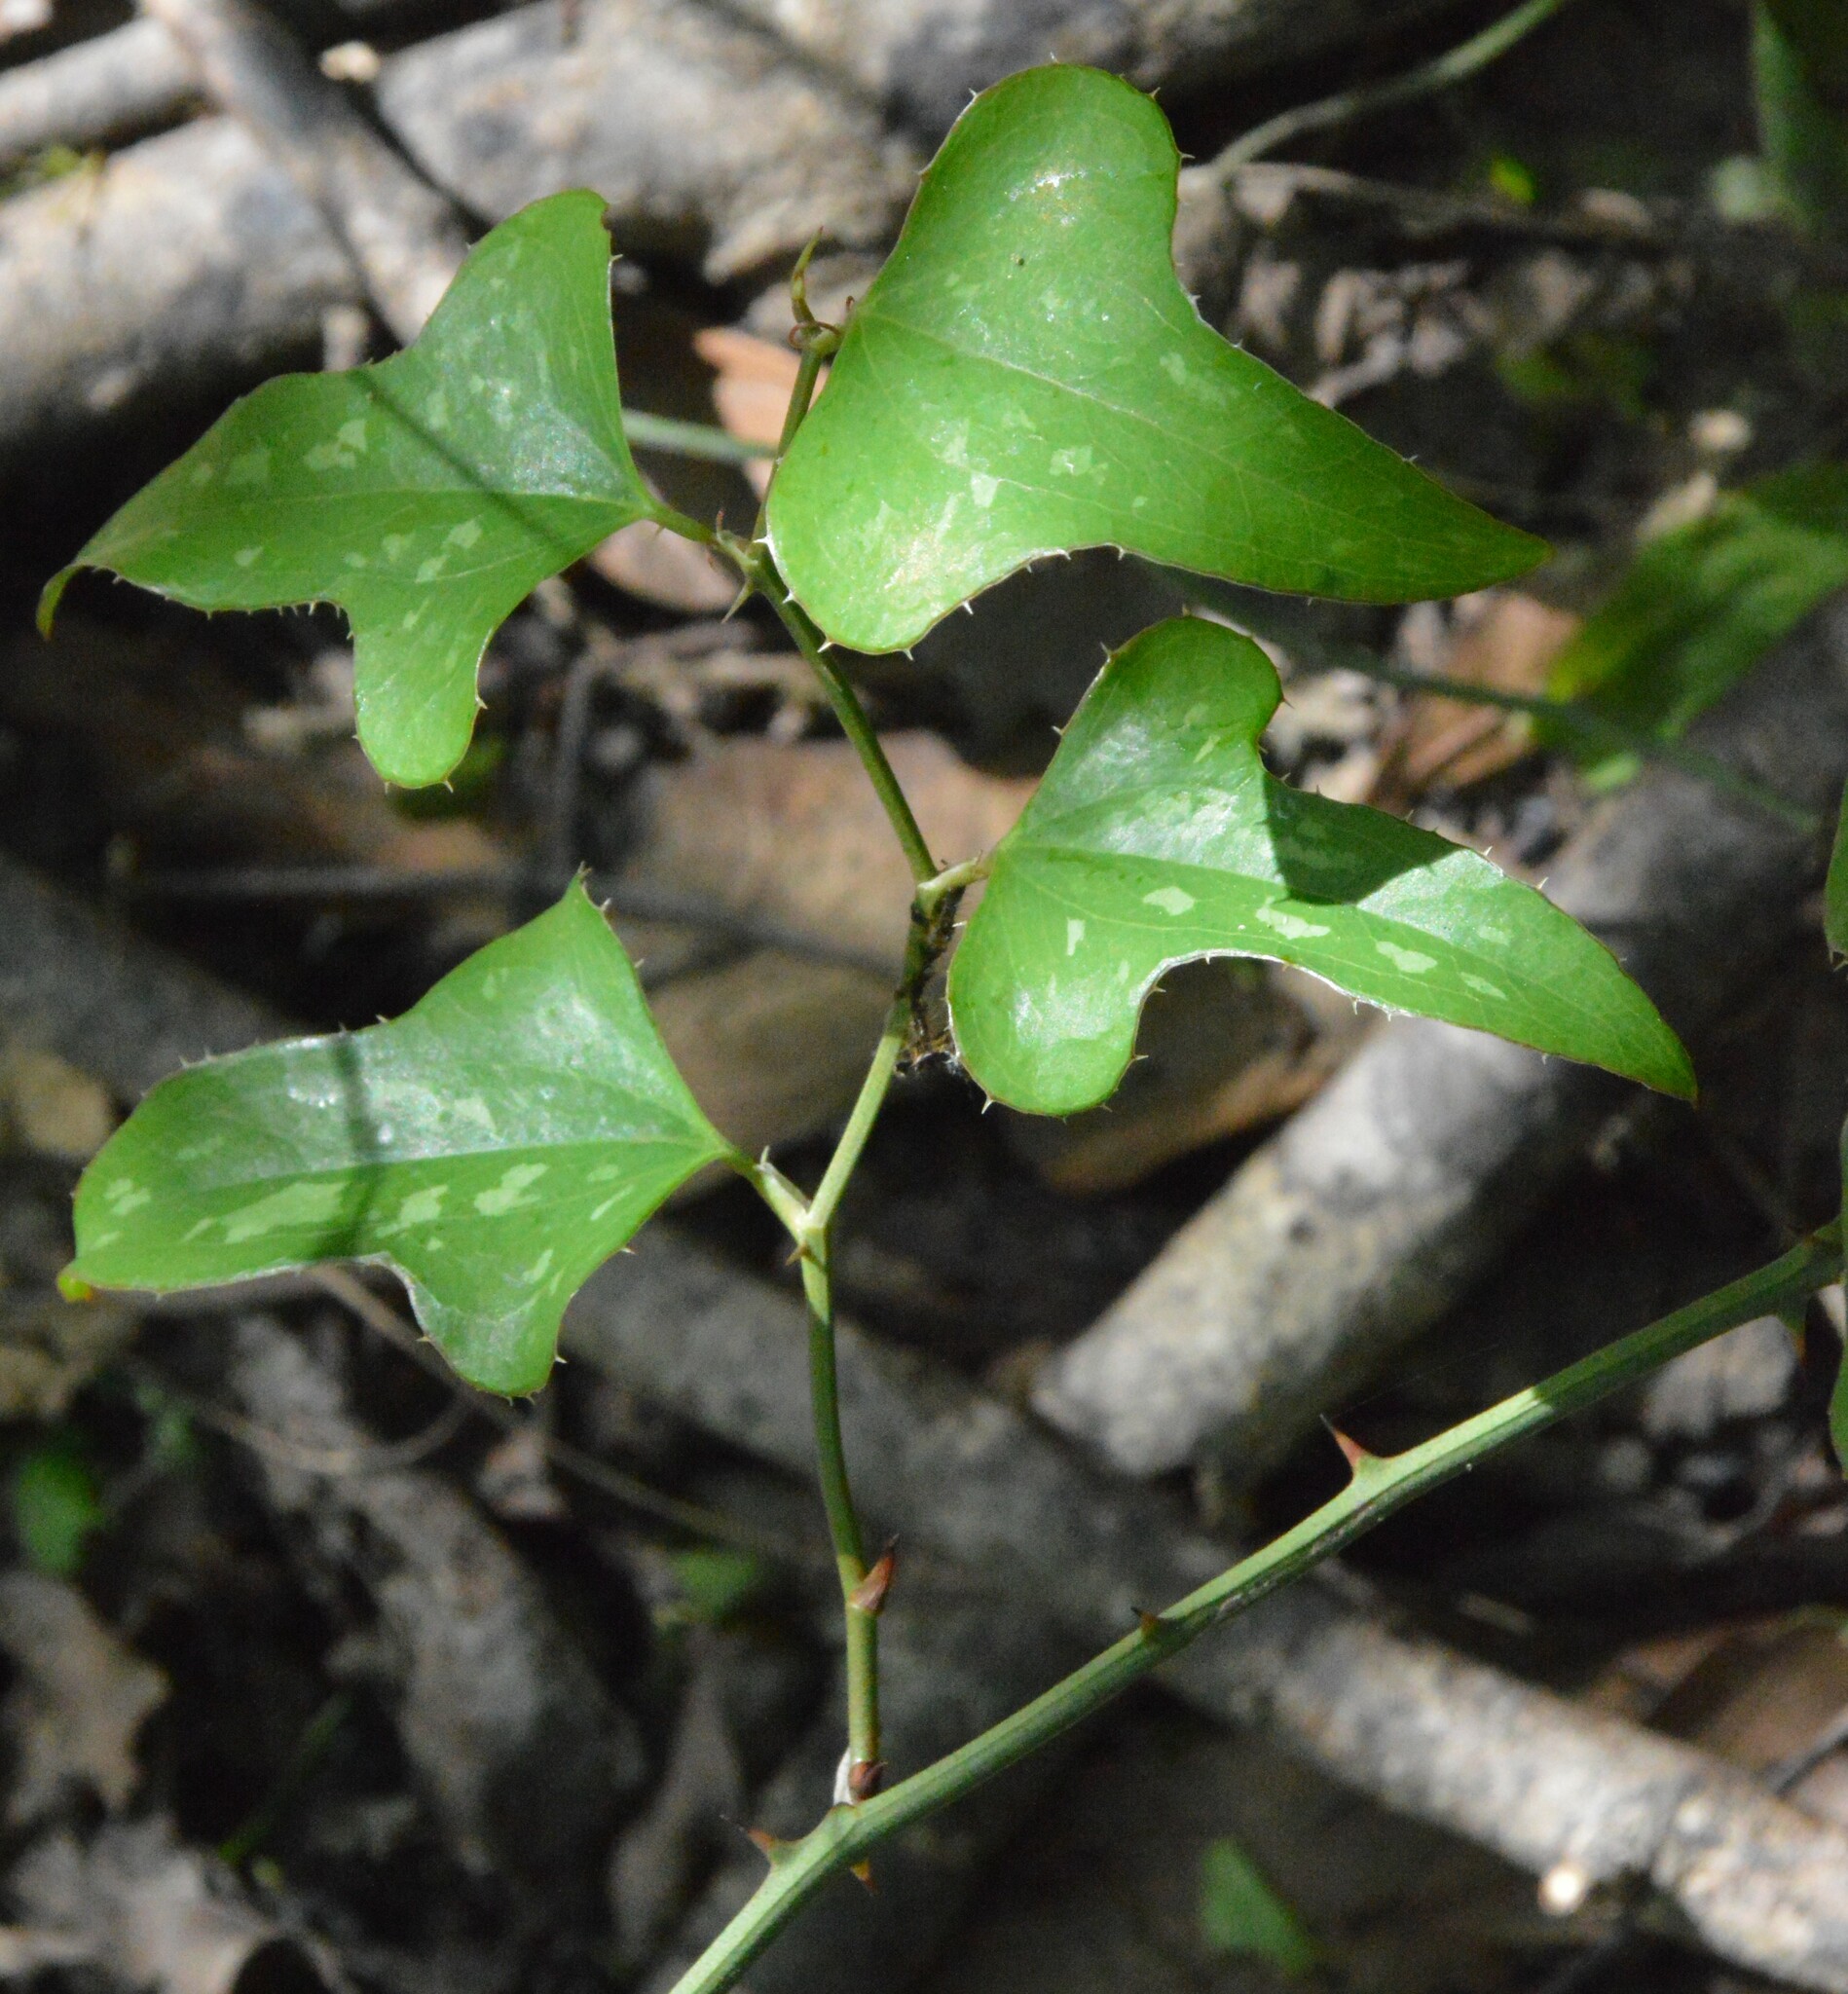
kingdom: Plantae
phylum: Tracheophyta
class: Liliopsida
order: Liliales
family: Smilacaceae
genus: Smilax
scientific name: Smilax bona-nox
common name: Catbrier
